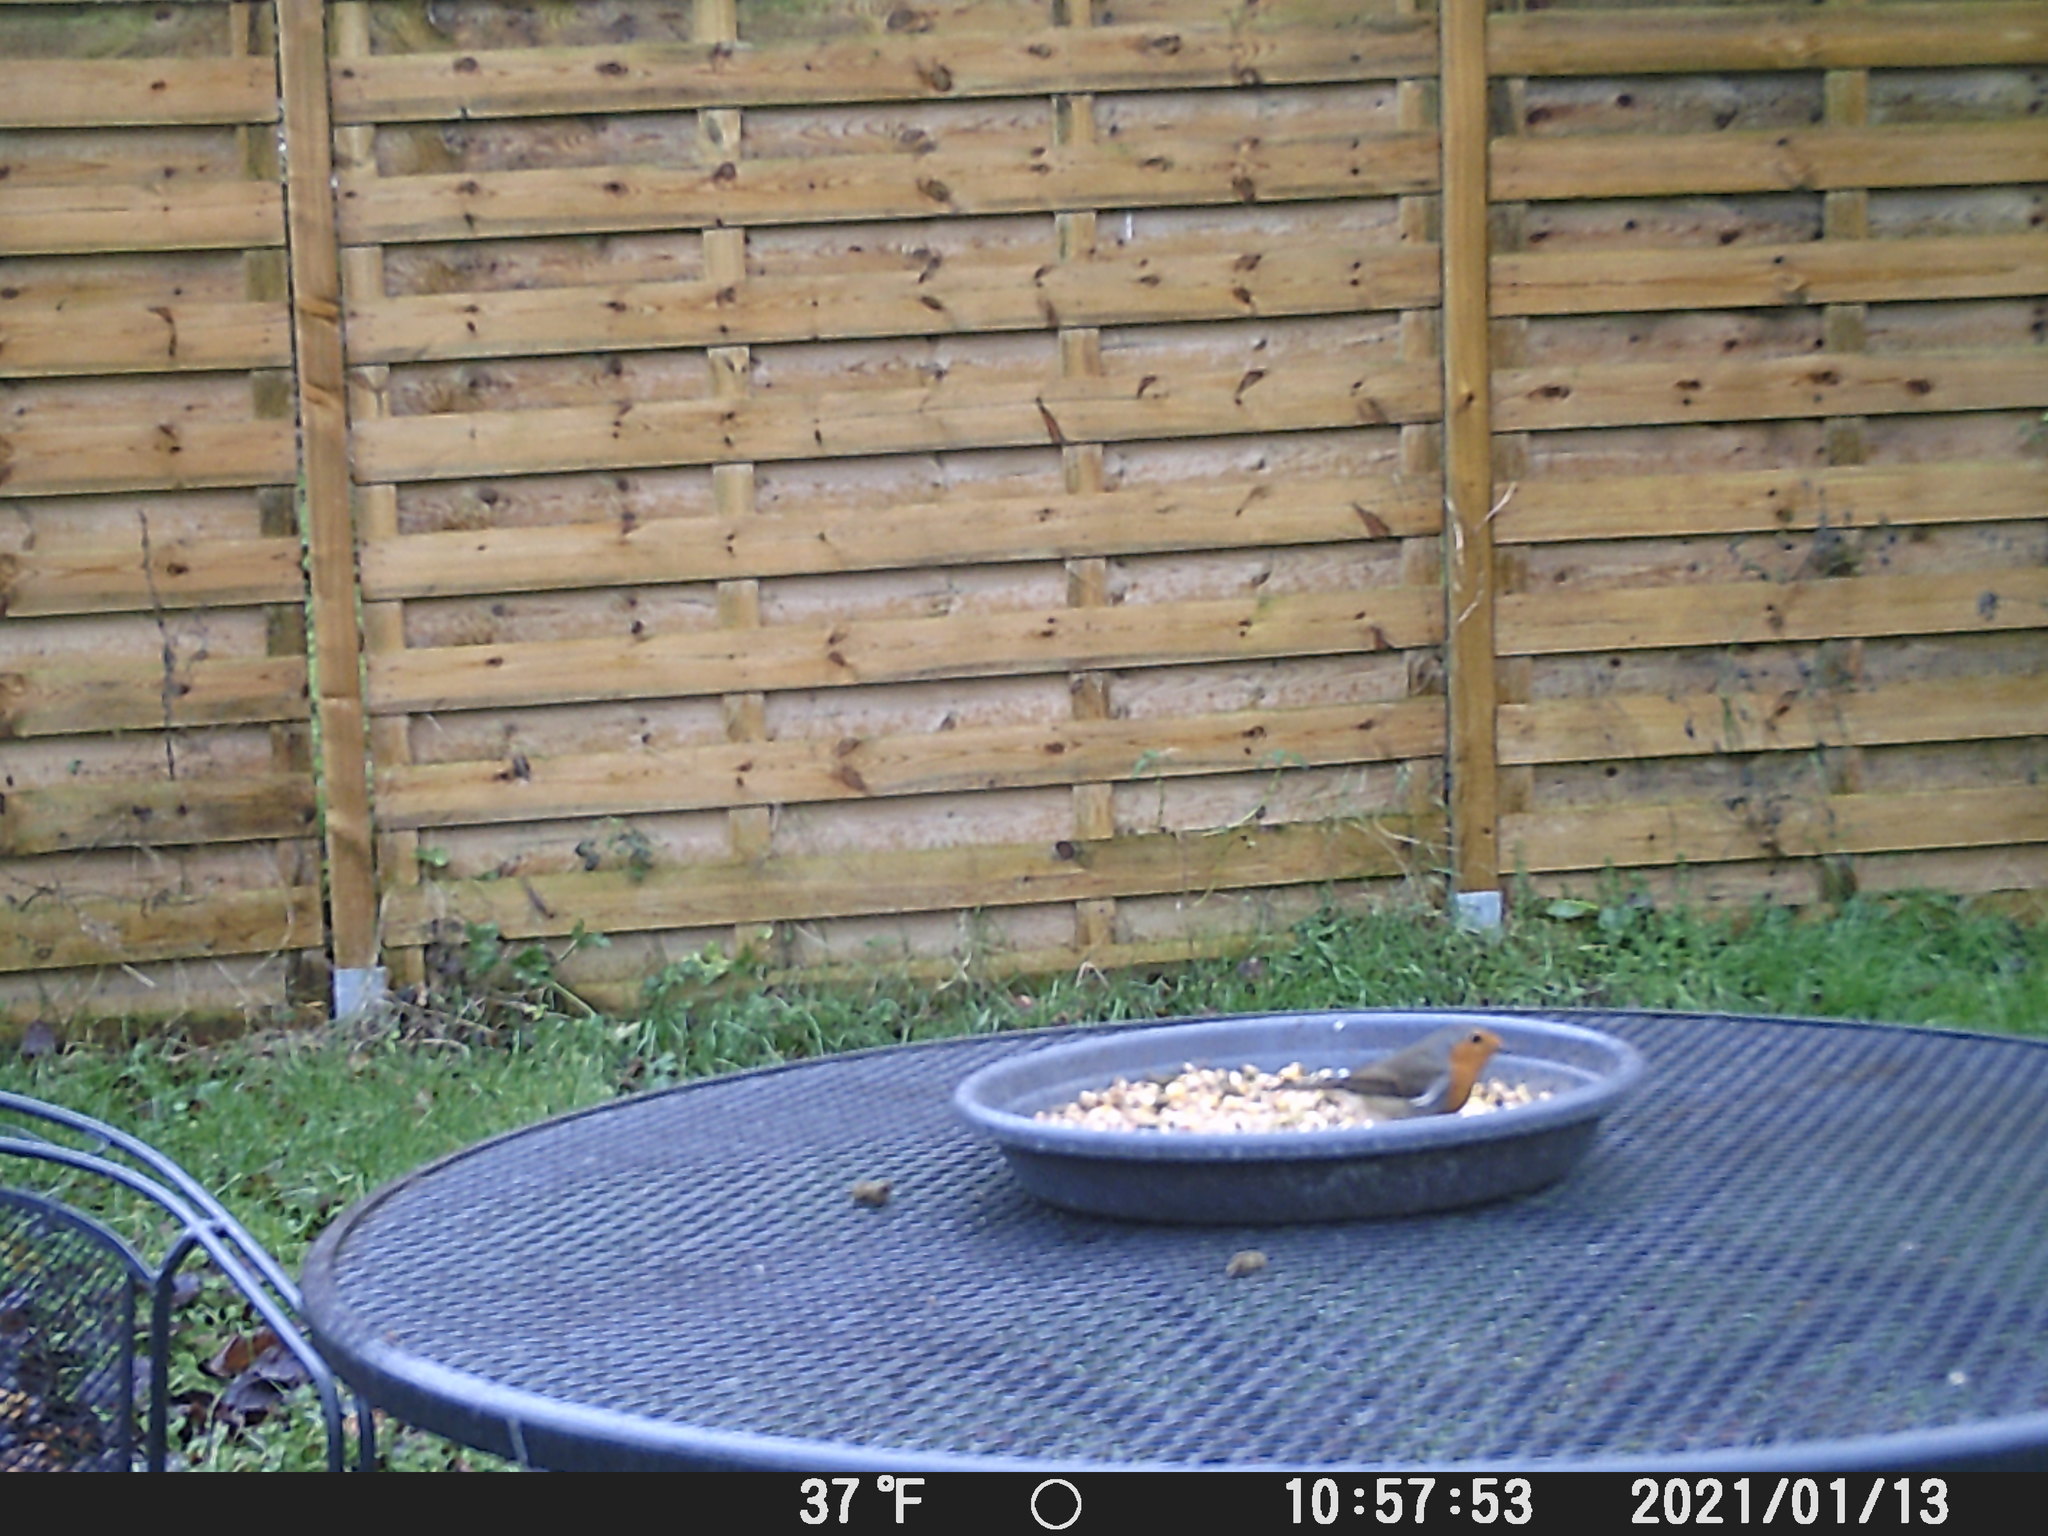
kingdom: Animalia
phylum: Chordata
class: Aves
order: Passeriformes
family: Muscicapidae
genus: Erithacus
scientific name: Erithacus rubecula
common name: European robin
